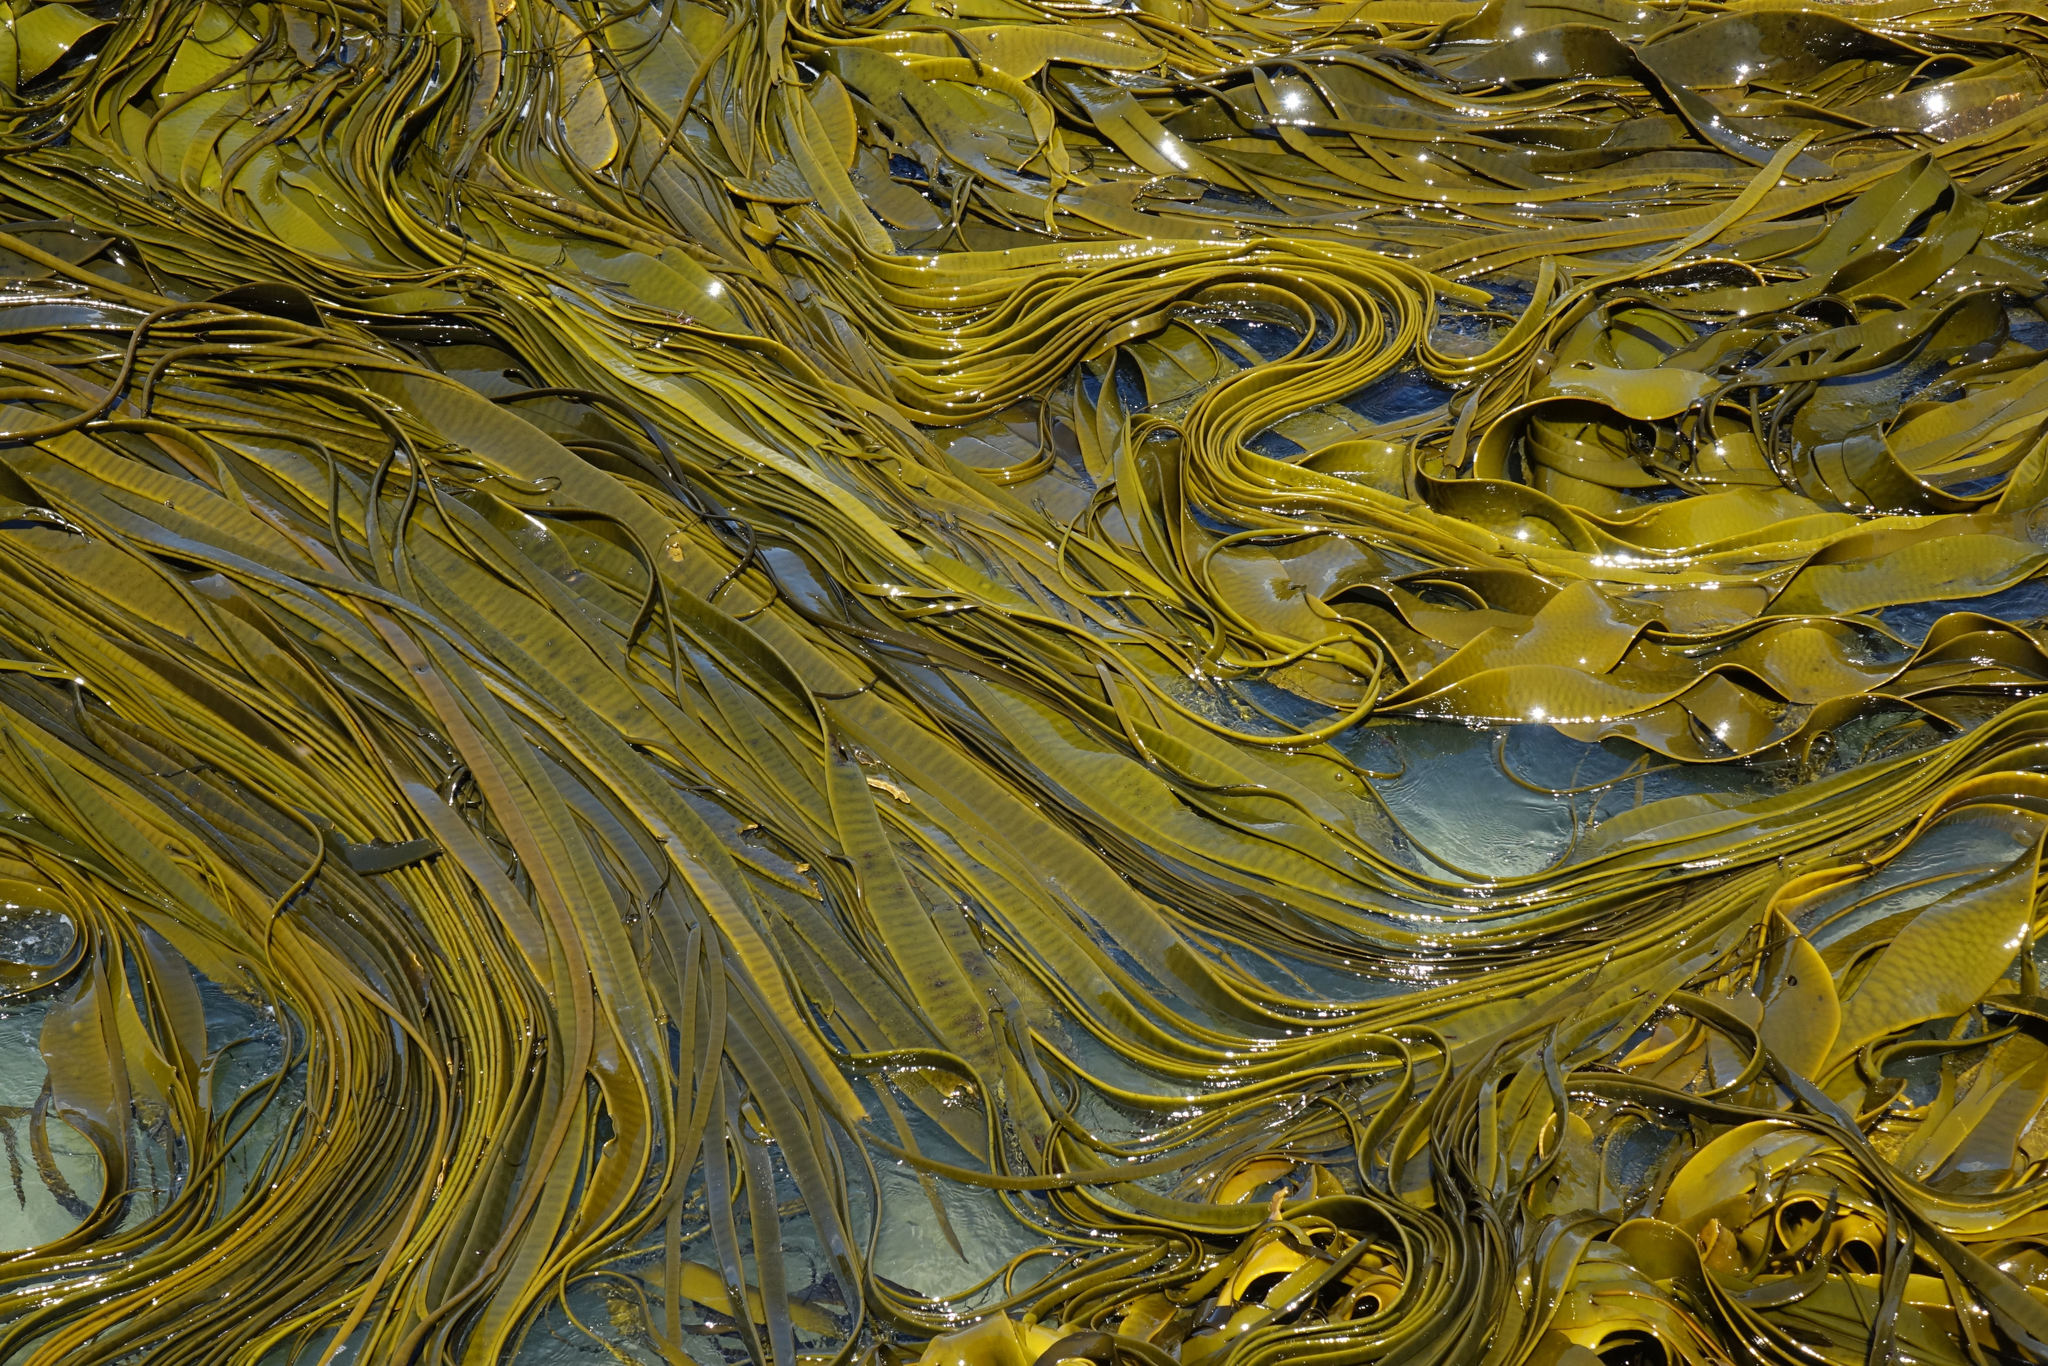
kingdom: Chromista
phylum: Ochrophyta
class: Phaeophyceae
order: Fucales
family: Durvillaeaceae
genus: Durvillaea
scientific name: Durvillaea antarctica
